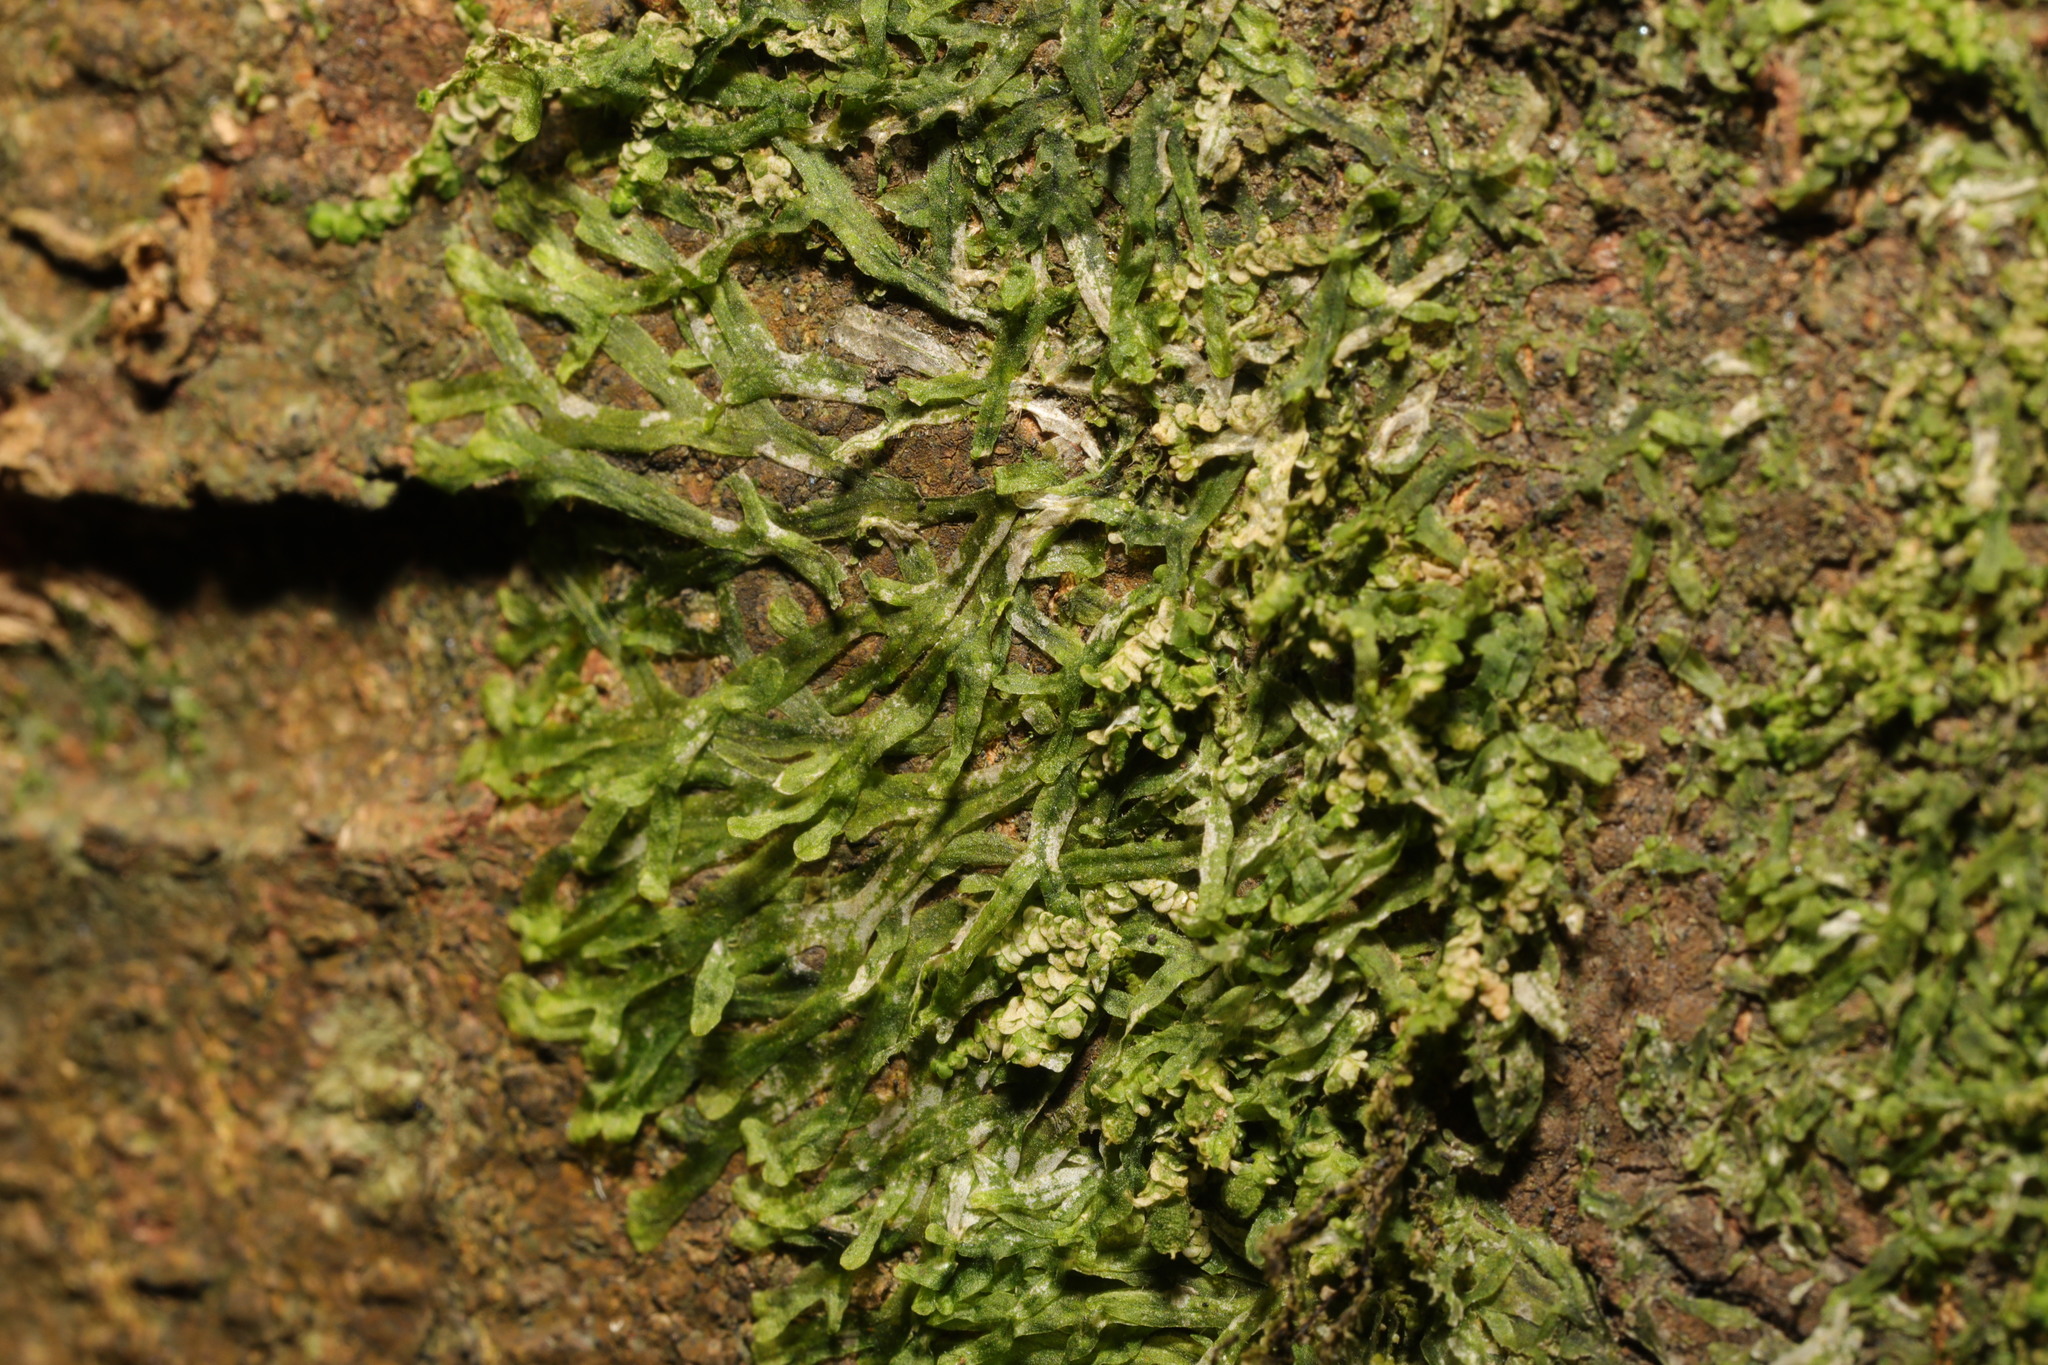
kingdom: Plantae
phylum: Marchantiophyta
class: Jungermanniopsida
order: Metzgeriales
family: Metzgeriaceae
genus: Metzgeria
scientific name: Metzgeria furcata
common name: Forked veilwort
